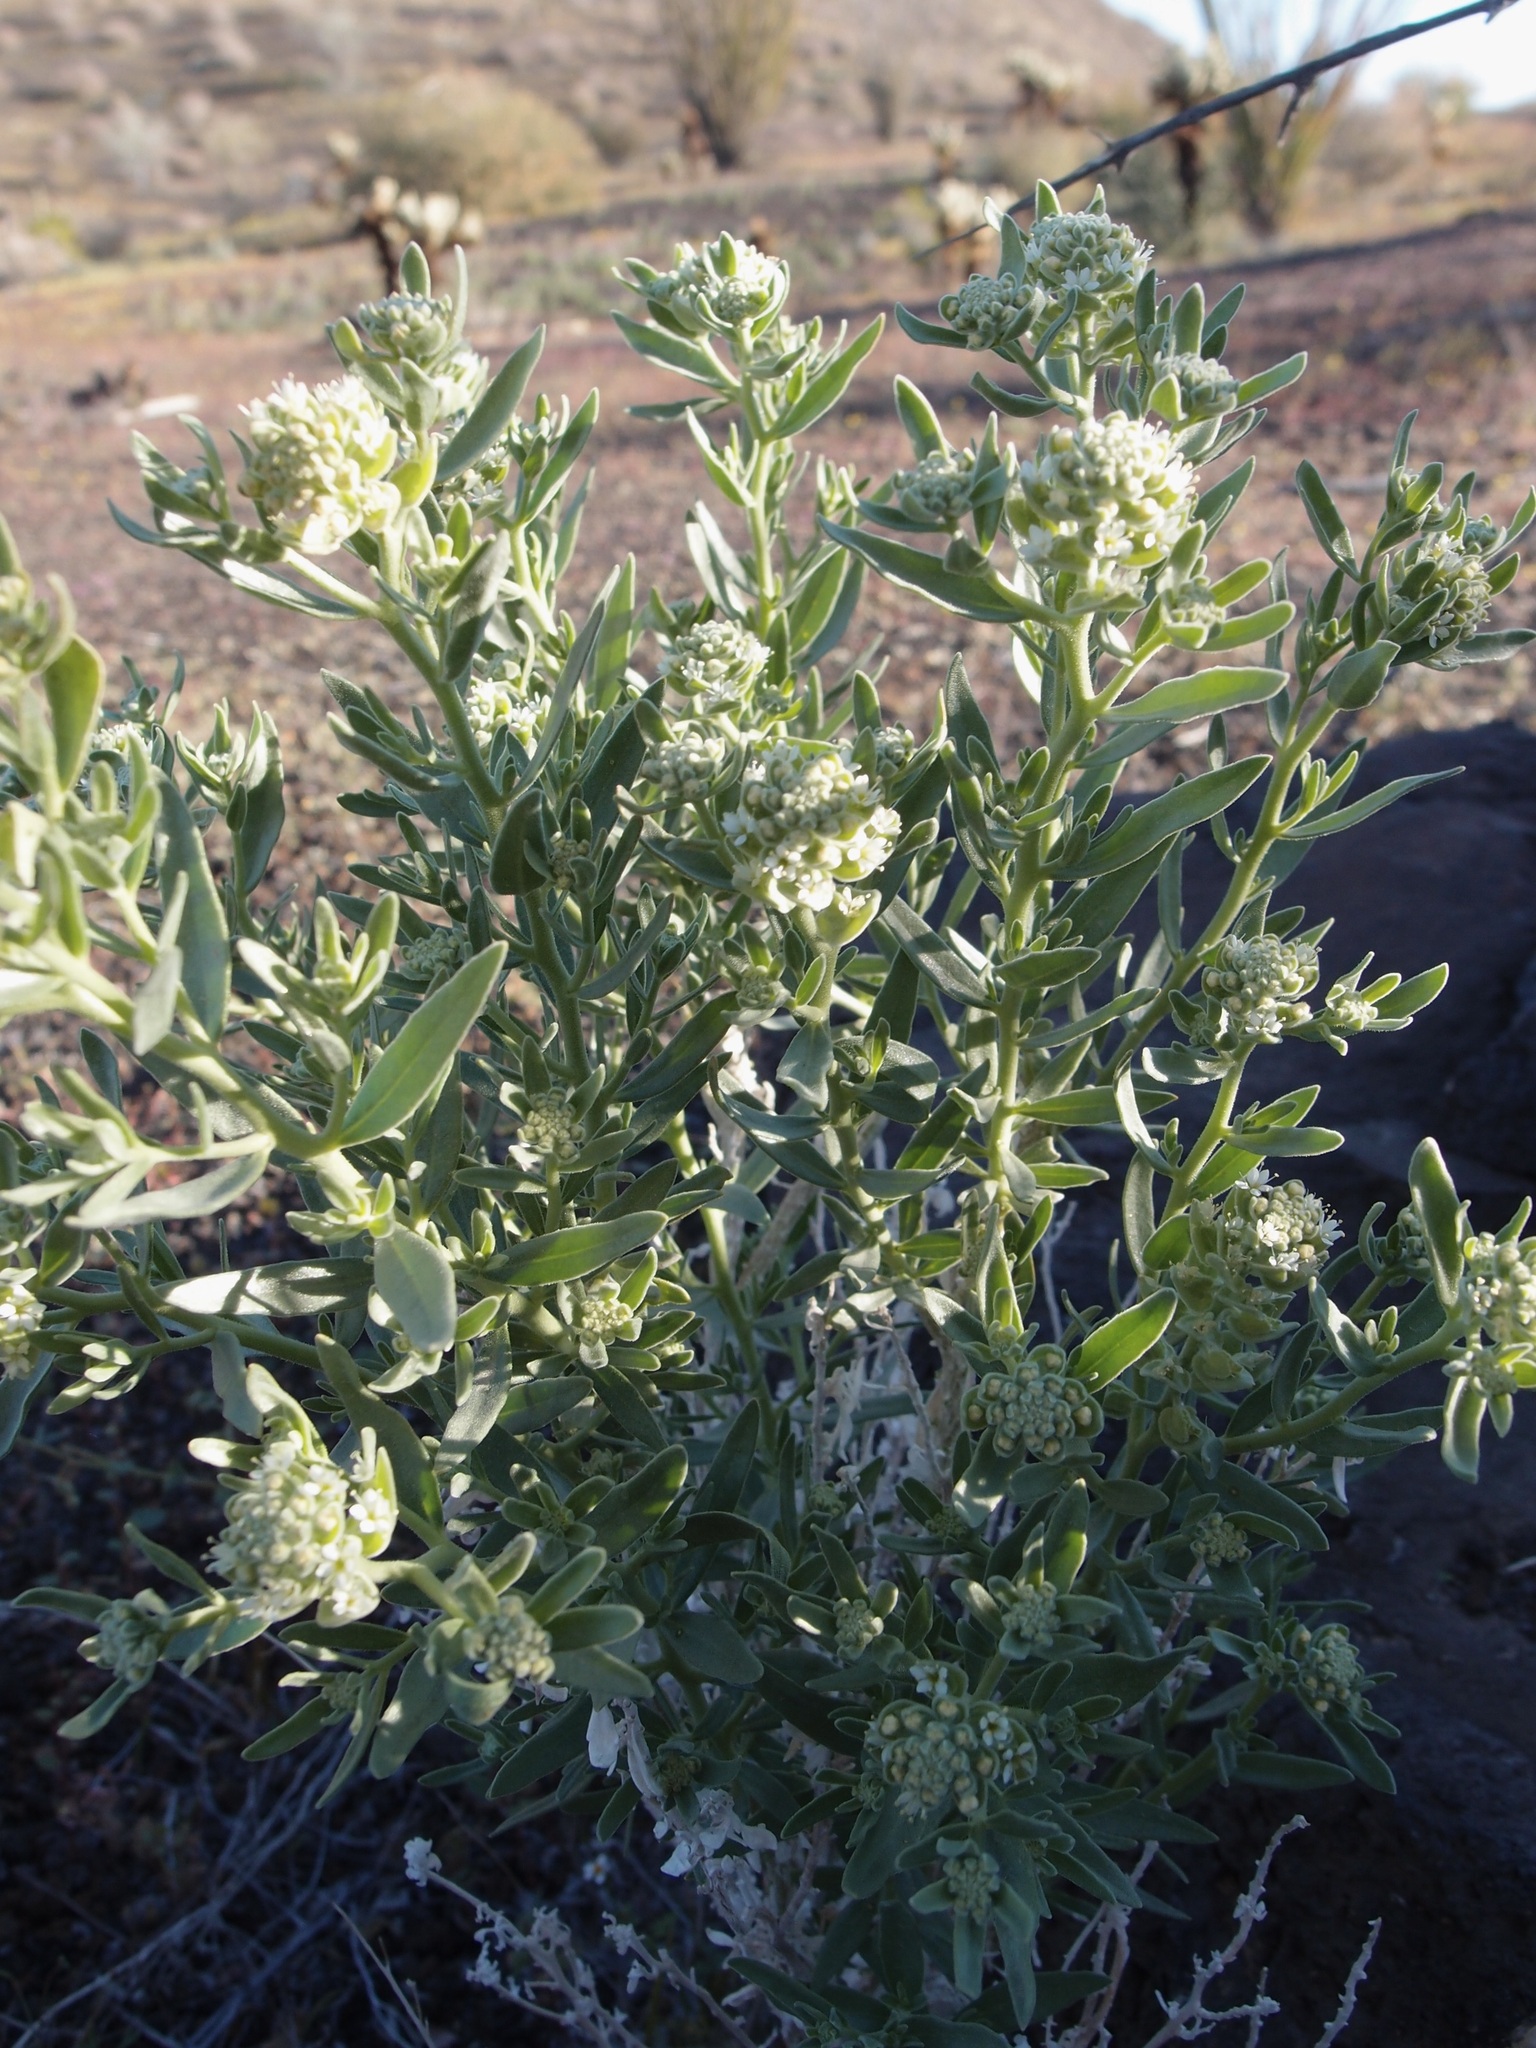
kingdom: Plantae
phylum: Tracheophyta
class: Magnoliopsida
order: Cornales
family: Loasaceae
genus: Petalonyx
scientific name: Petalonyx linearis
